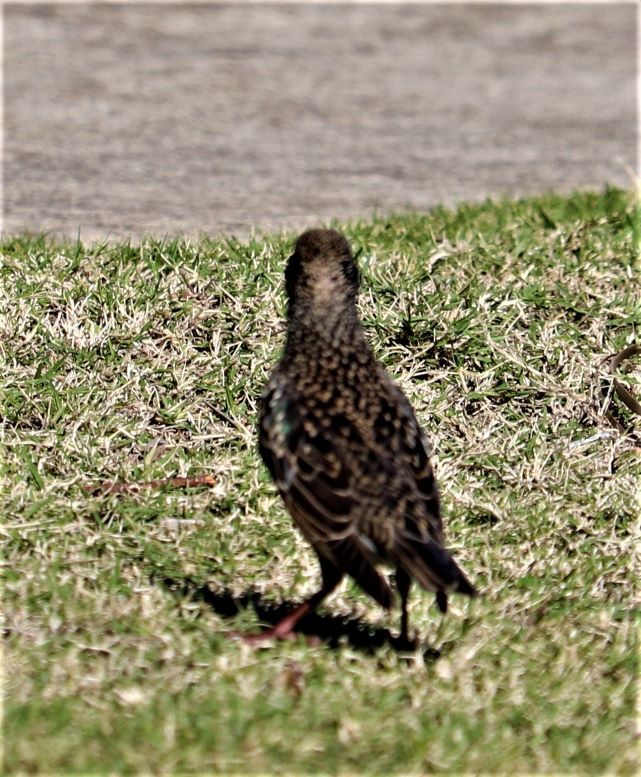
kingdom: Animalia
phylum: Chordata
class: Aves
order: Passeriformes
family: Sturnidae
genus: Sturnus
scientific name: Sturnus vulgaris
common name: Common starling
